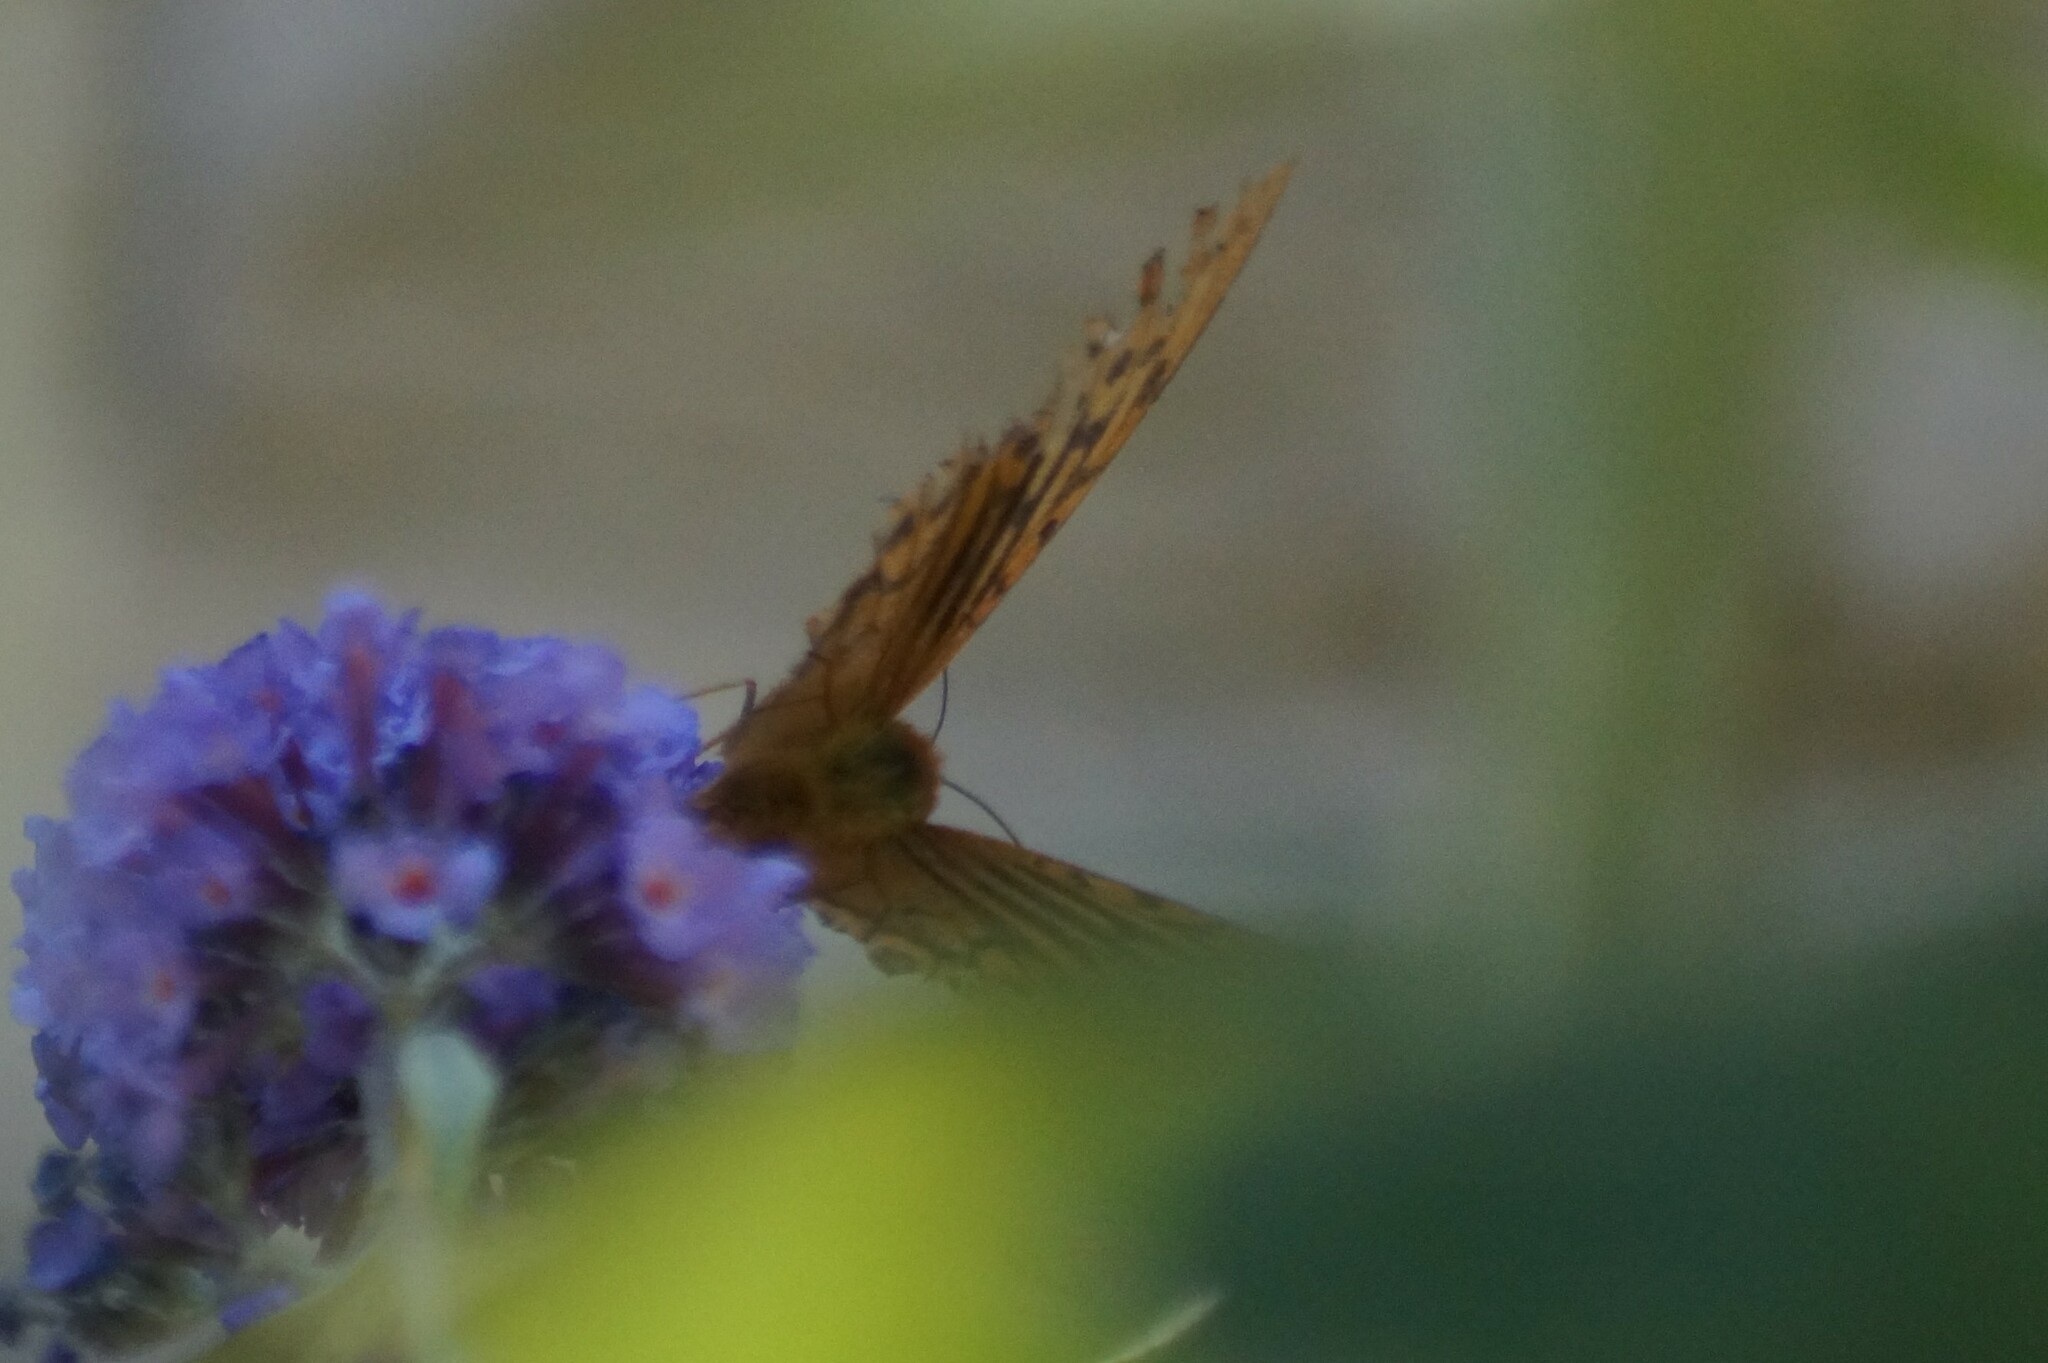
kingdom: Animalia
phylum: Arthropoda
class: Insecta
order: Lepidoptera
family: Nymphalidae
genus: Argynnis
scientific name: Argynnis paphia
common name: Silver-washed fritillary
